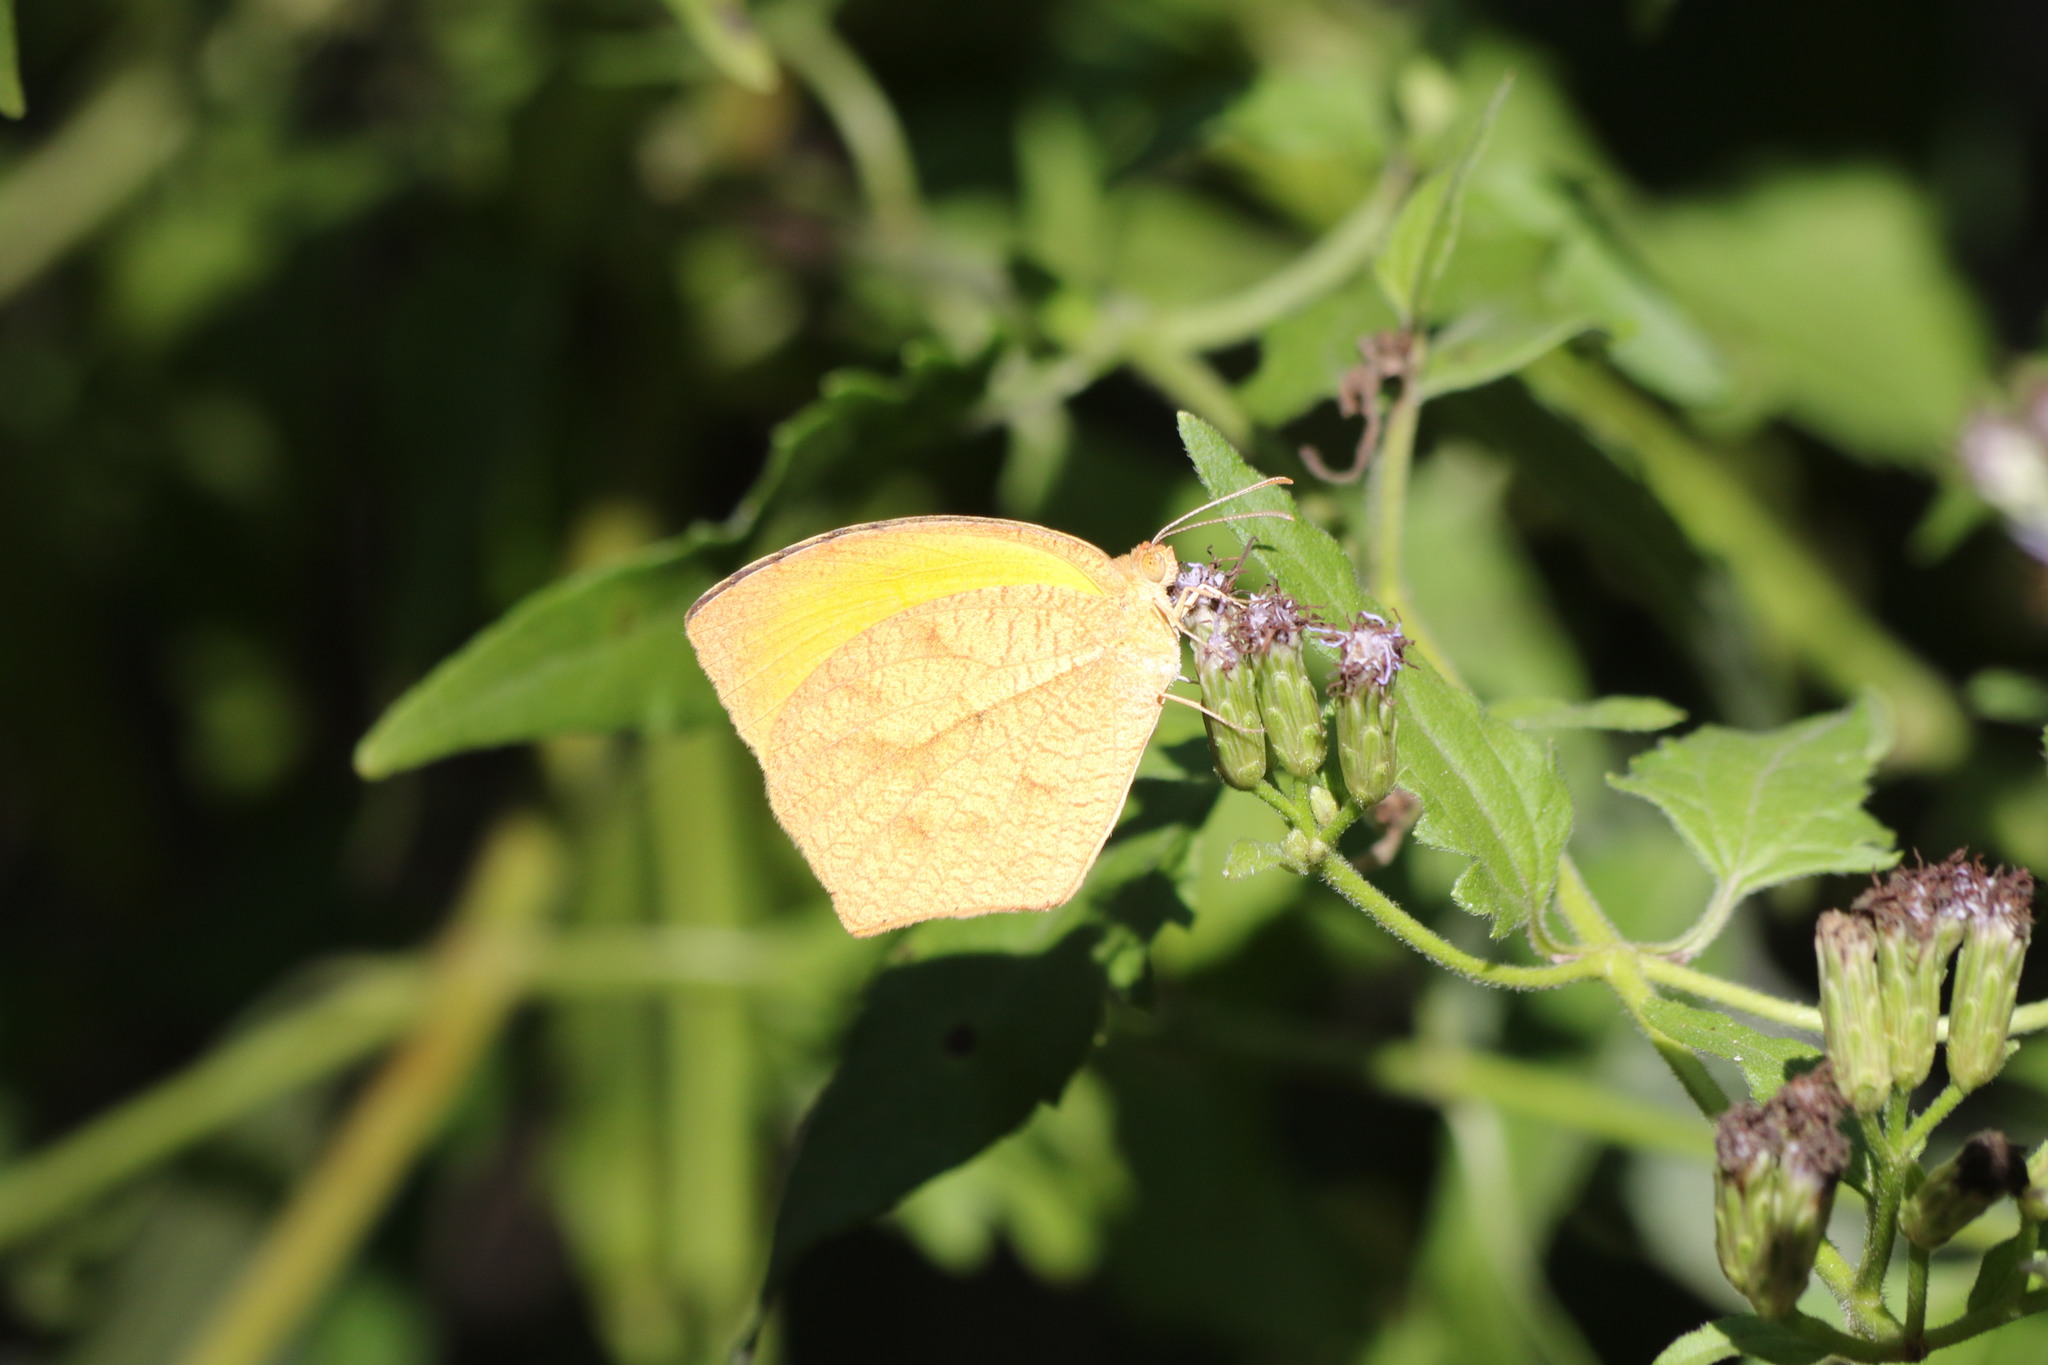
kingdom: Animalia
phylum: Arthropoda
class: Insecta
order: Lepidoptera
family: Pieridae
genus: Pyrisitia
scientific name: Pyrisitia proterpia
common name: Tailed orange
